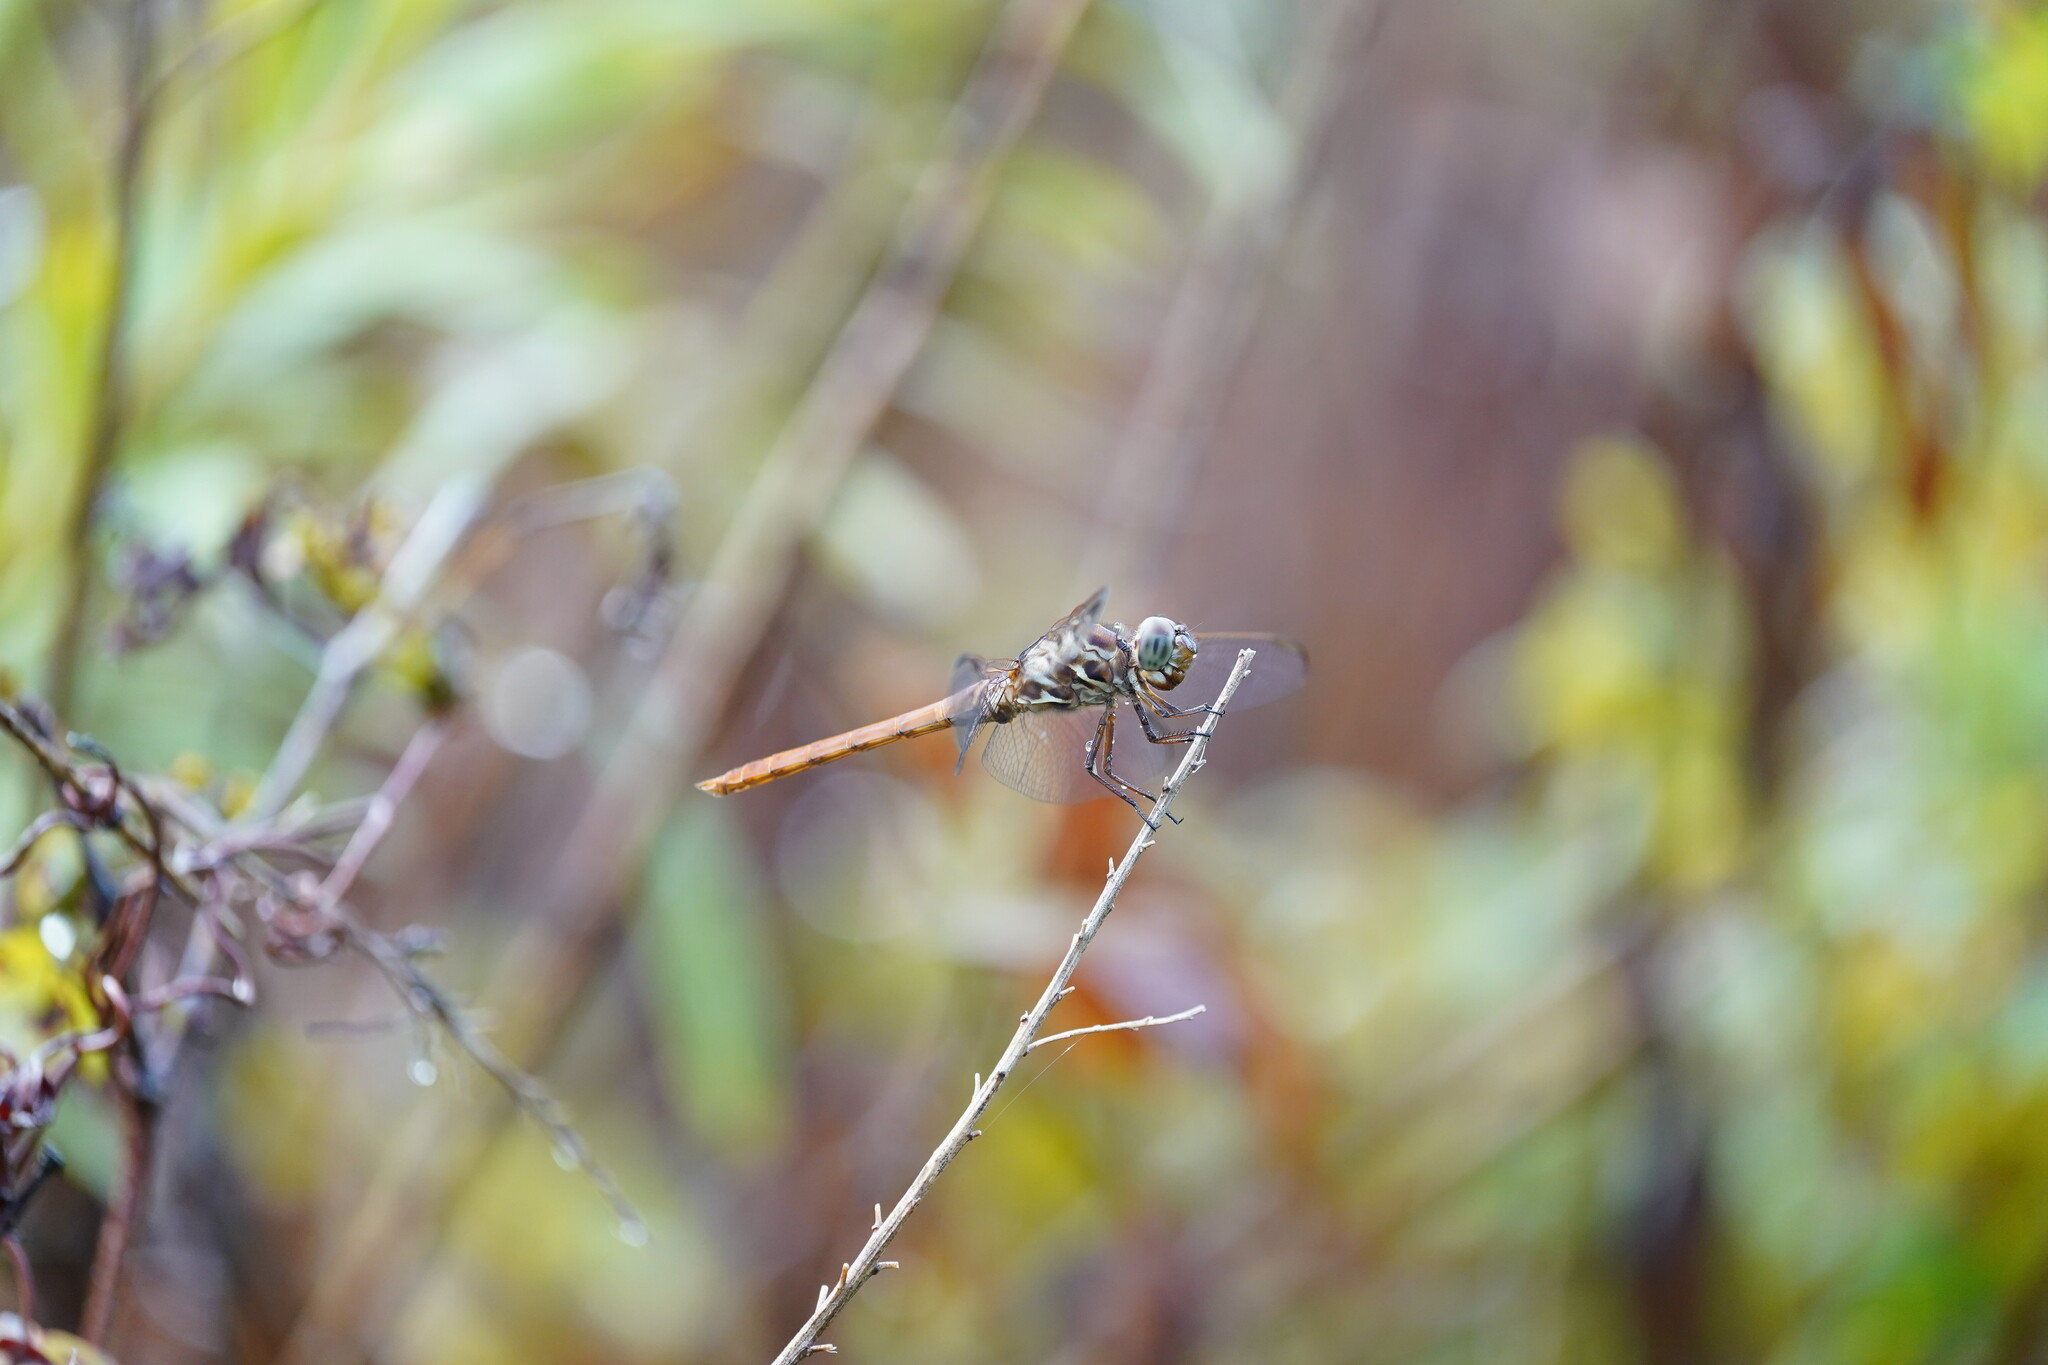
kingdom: Animalia
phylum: Arthropoda
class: Insecta
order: Odonata
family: Libellulidae
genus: Orthemis
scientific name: Orthemis ferruginea
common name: Roseate skimmer
